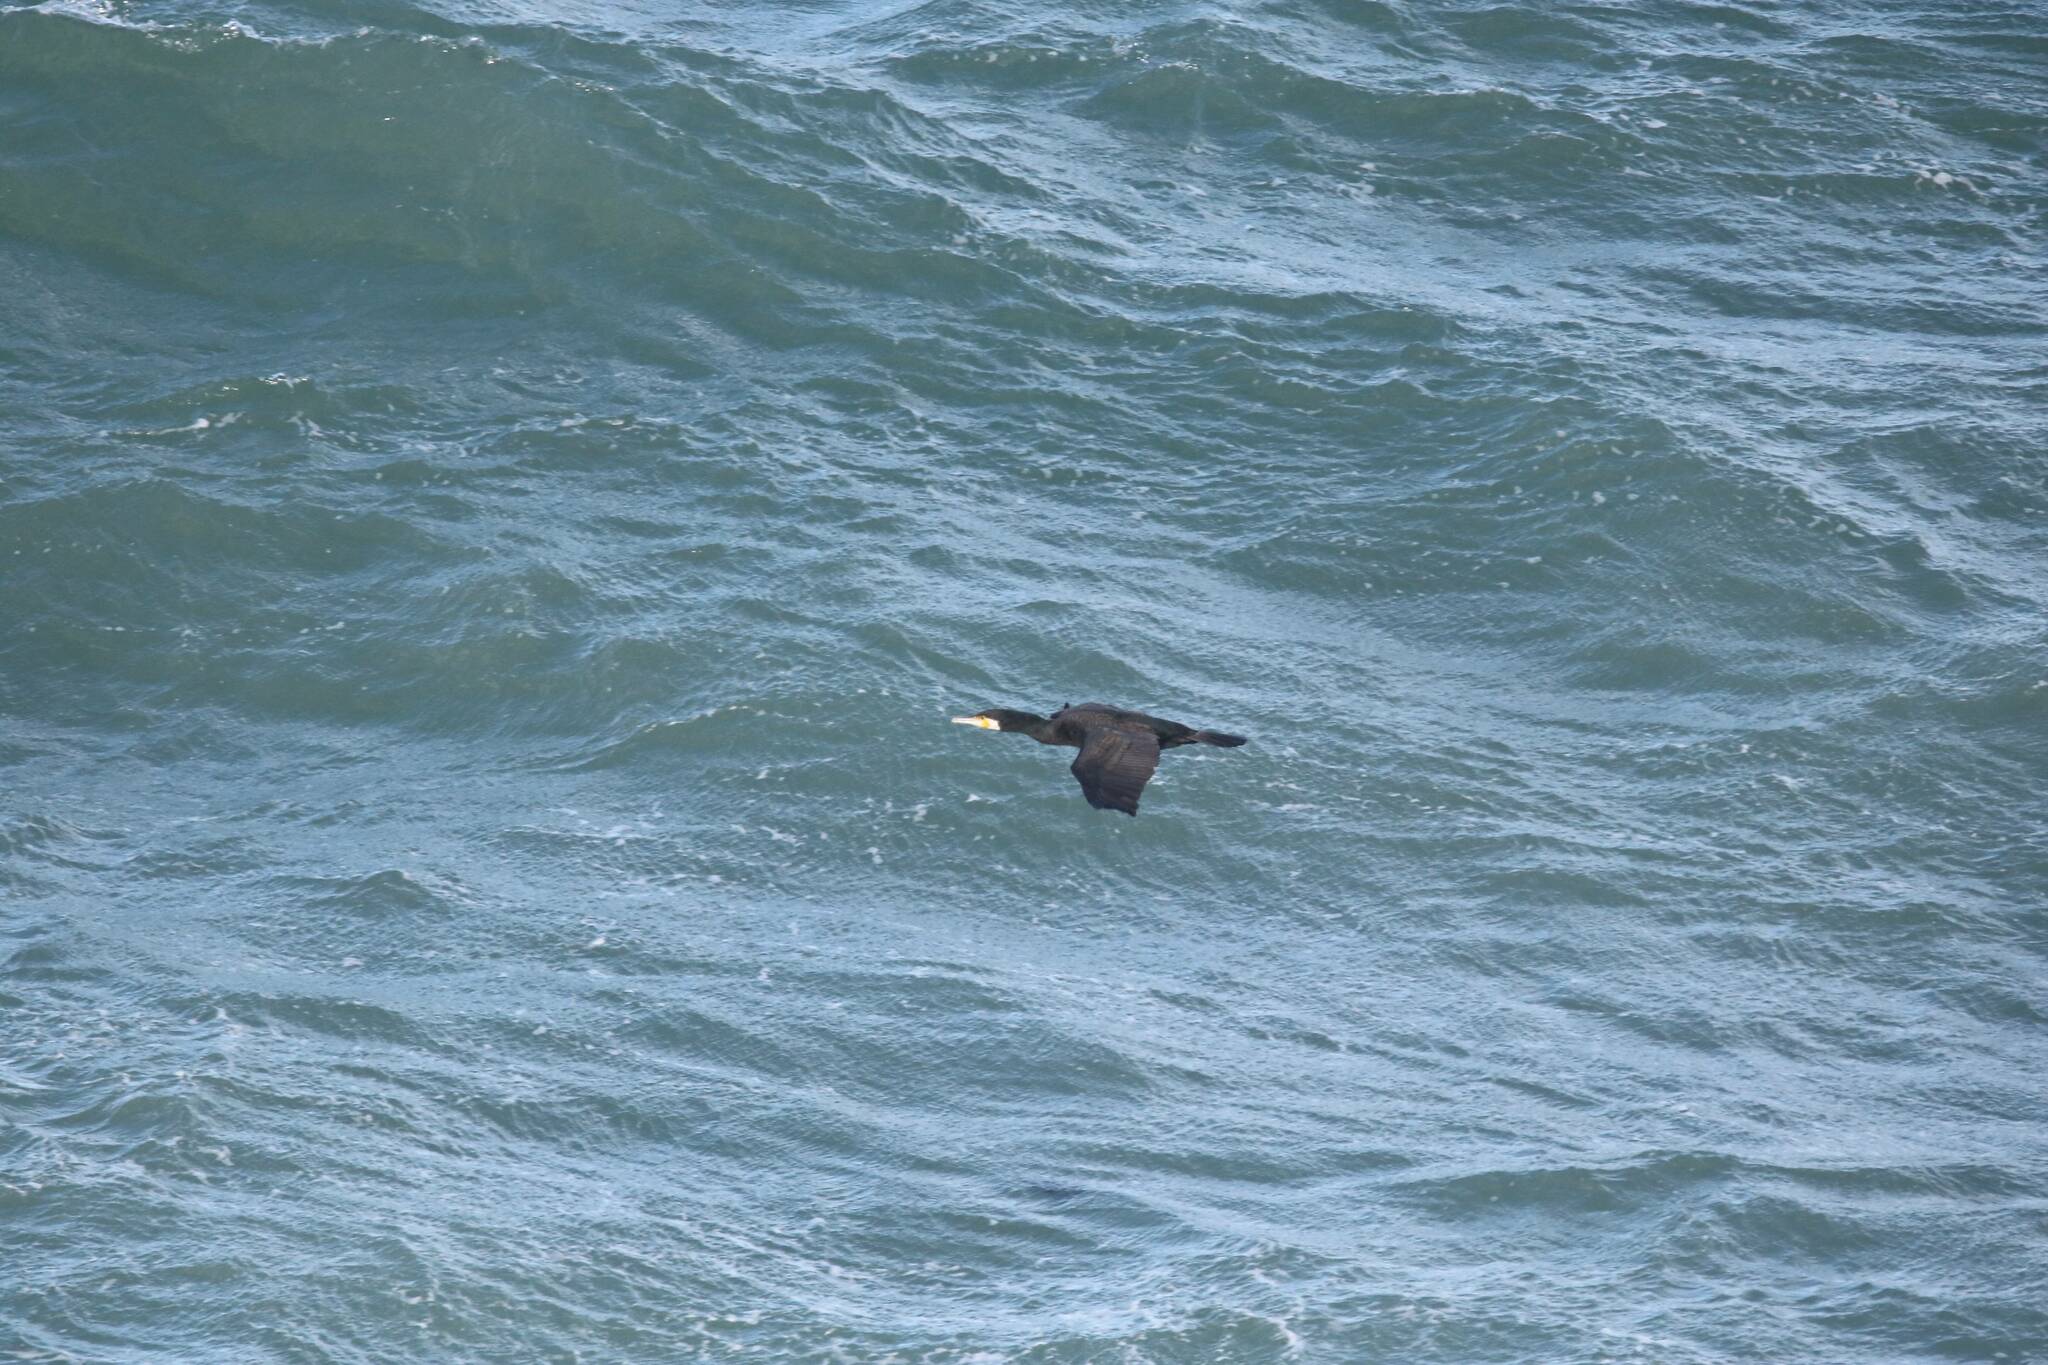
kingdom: Animalia
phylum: Chordata
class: Aves
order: Suliformes
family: Phalacrocoracidae
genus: Phalacrocorax
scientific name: Phalacrocorax carbo
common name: Great cormorant
